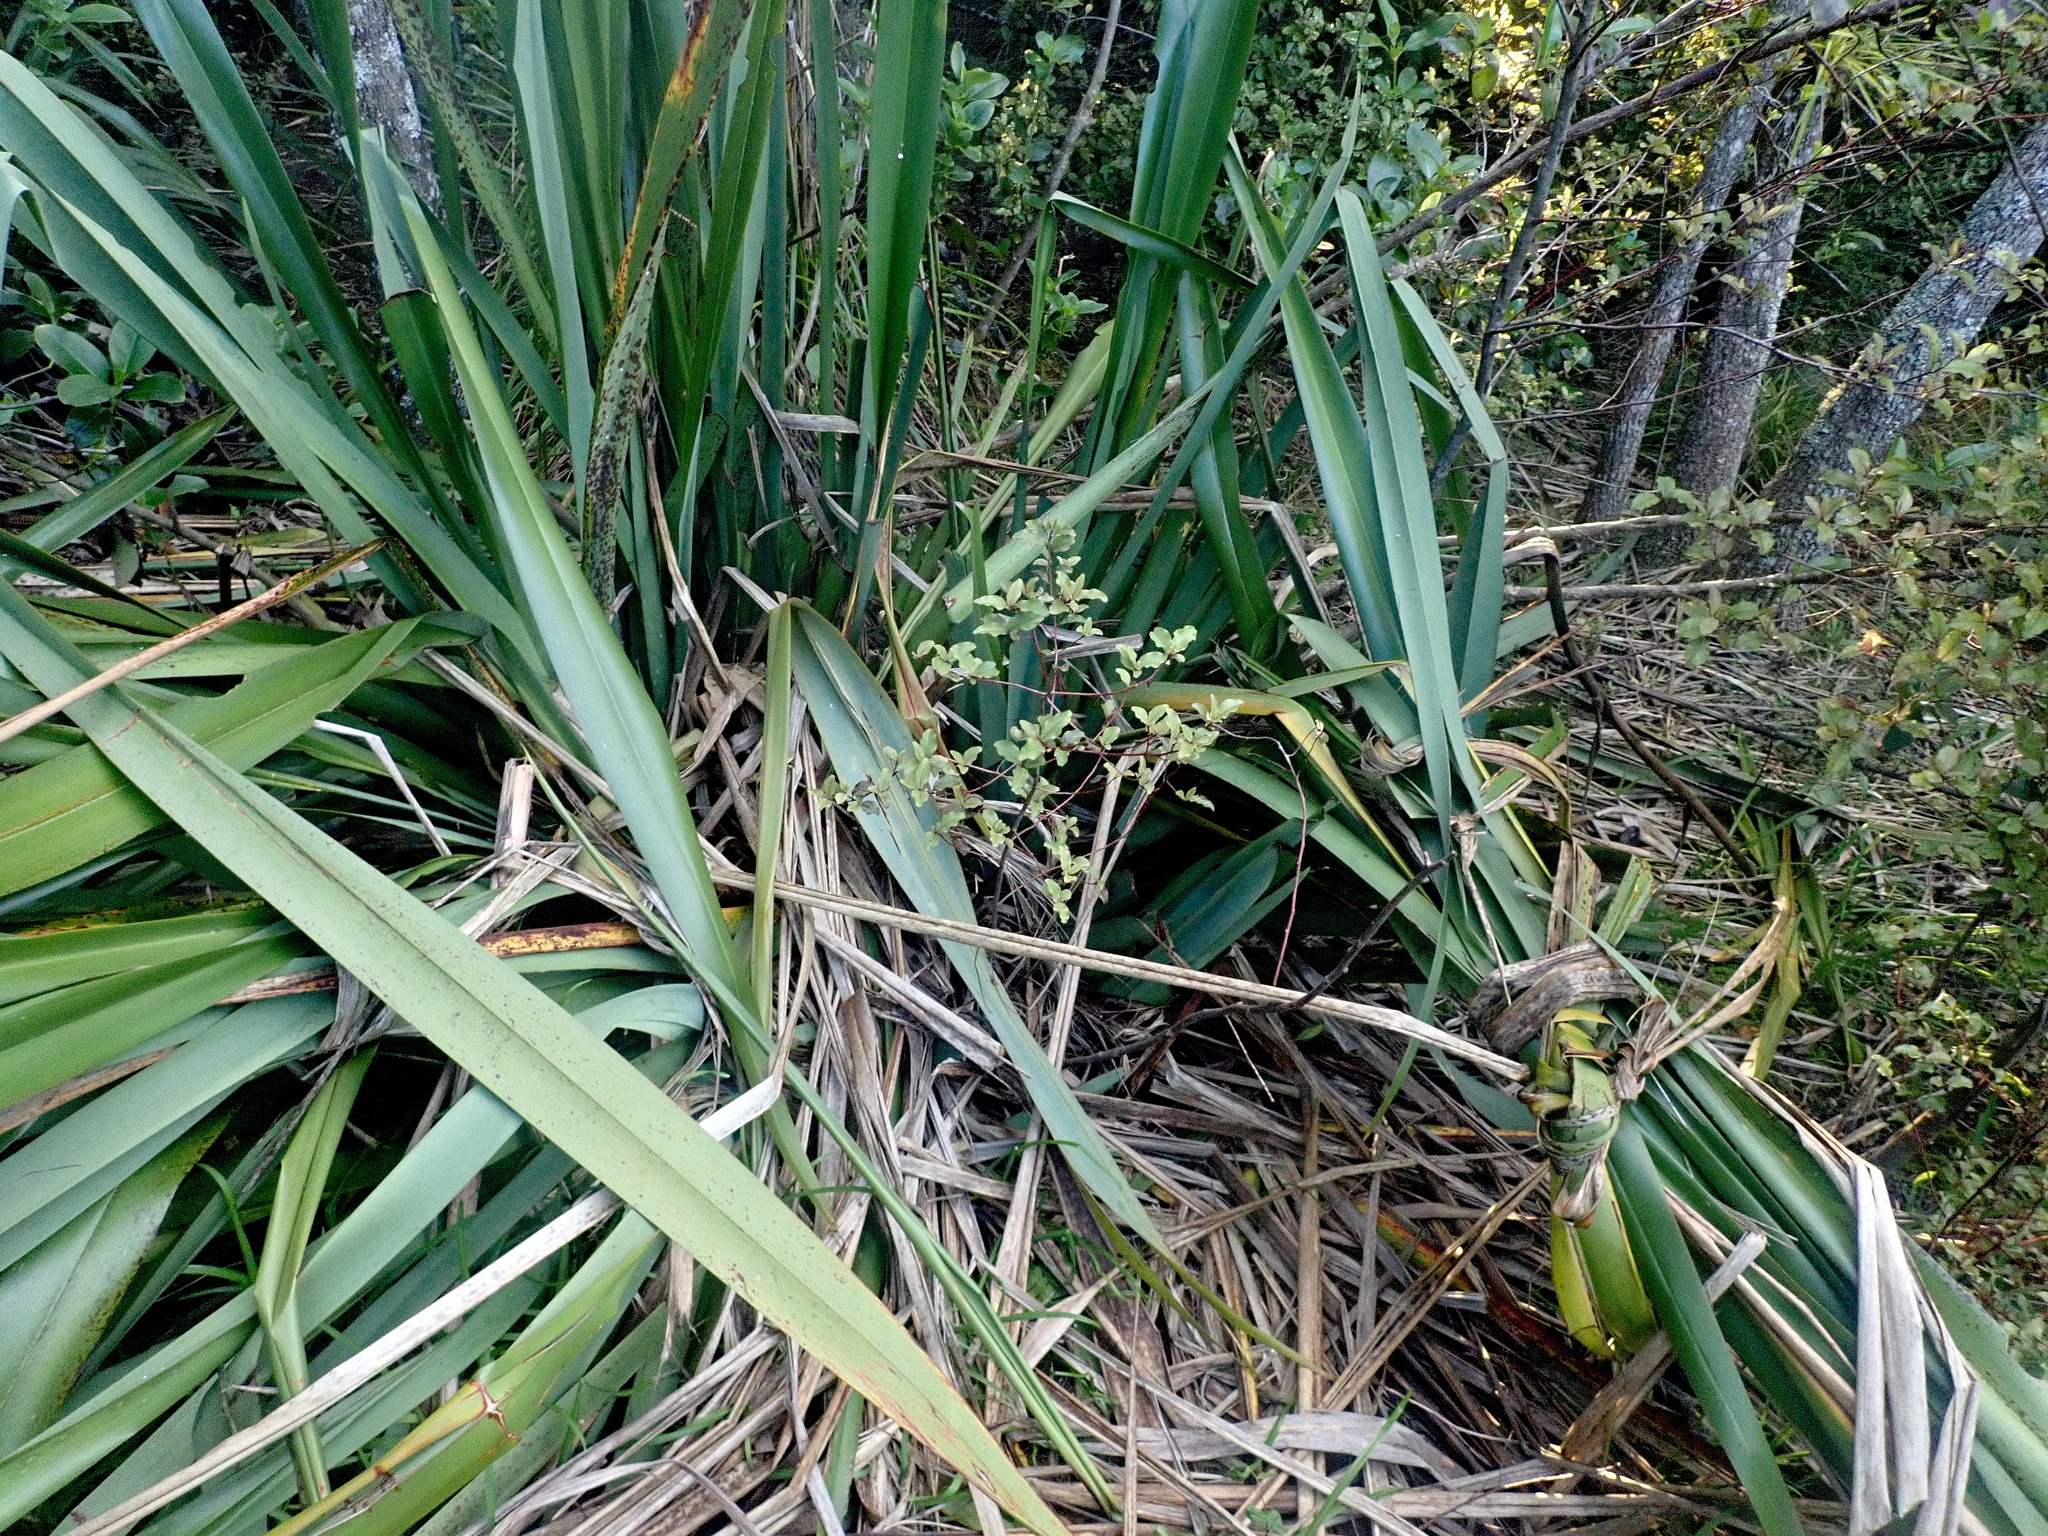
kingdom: Plantae
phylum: Tracheophyta
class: Magnoliopsida
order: Ericales
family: Primulaceae
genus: Myrsine
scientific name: Myrsine australis
